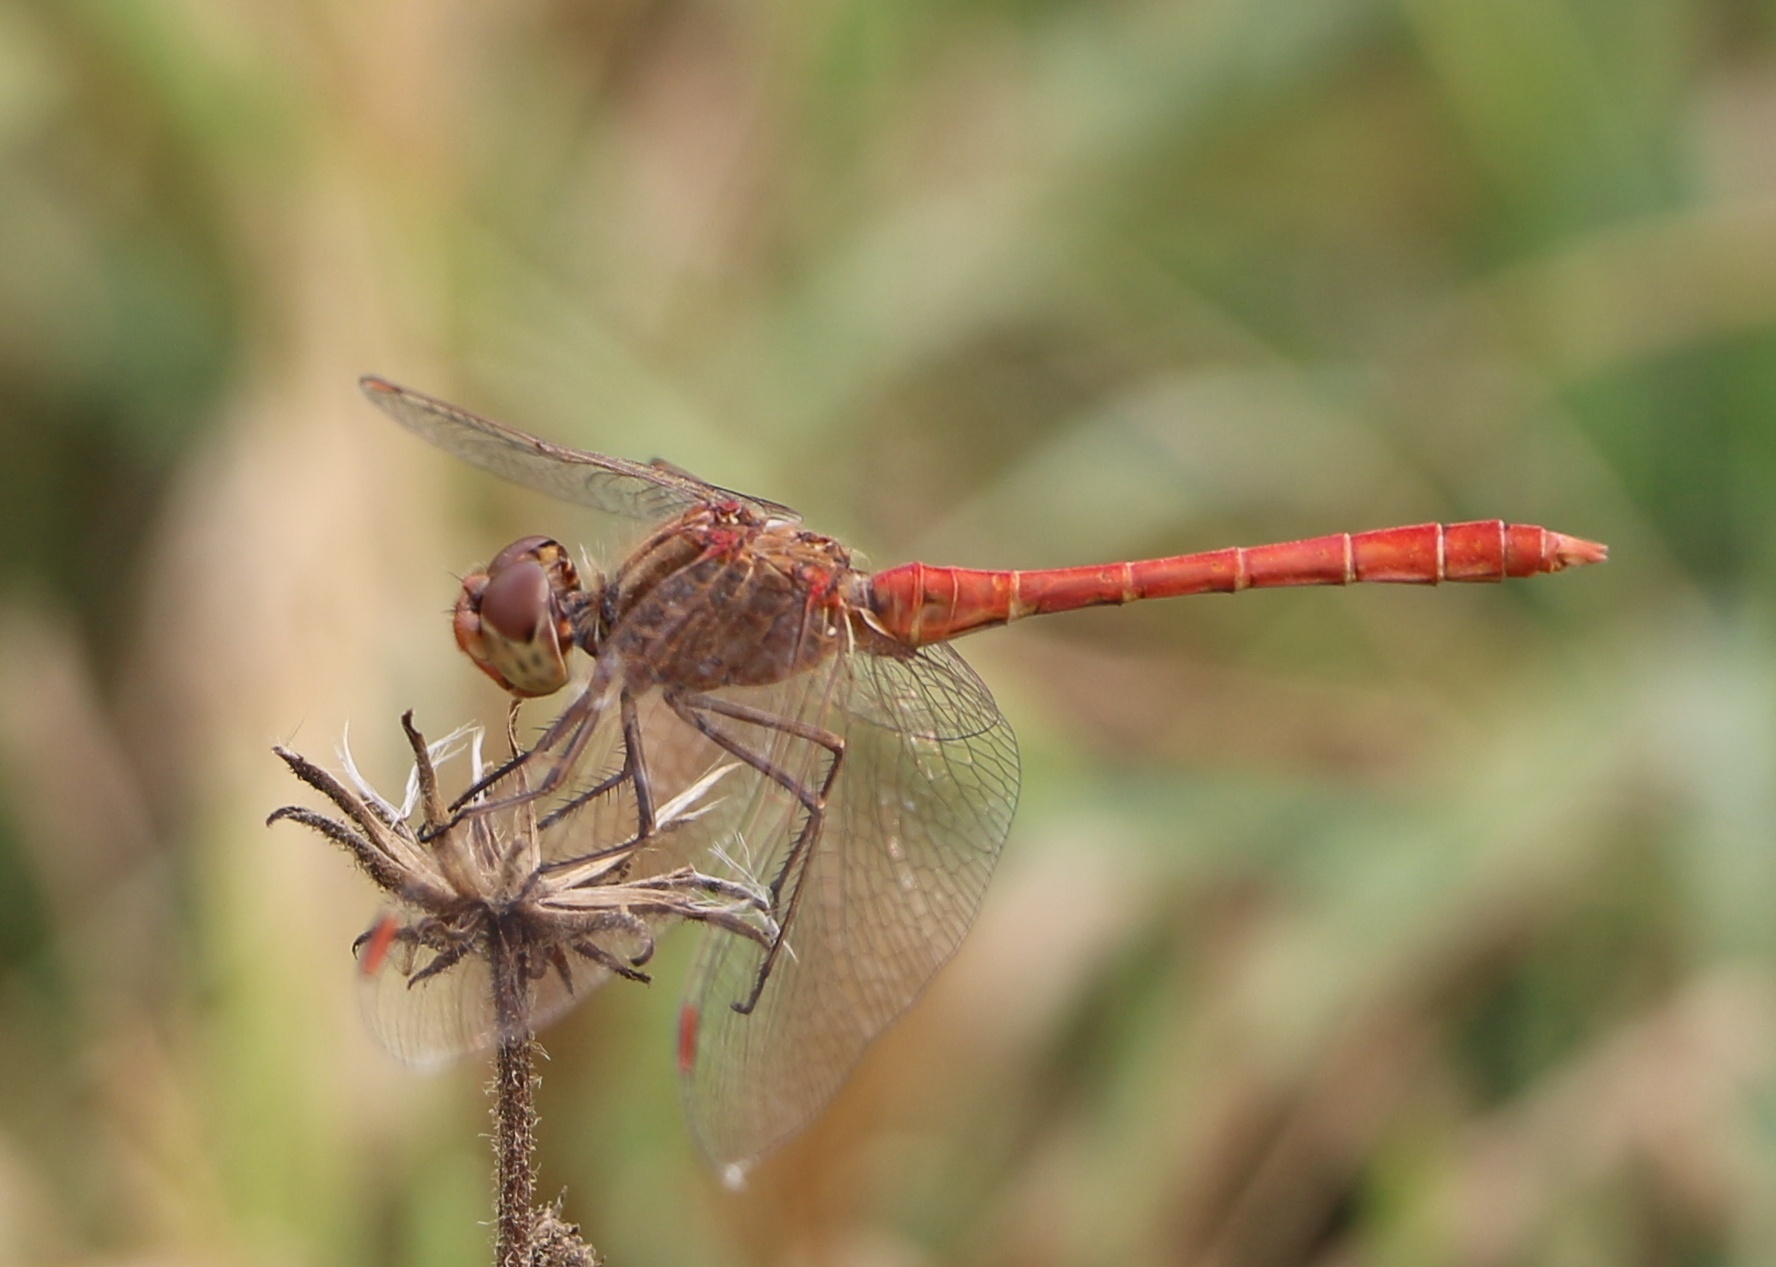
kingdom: Animalia
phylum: Arthropoda
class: Insecta
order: Odonata
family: Libellulidae
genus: Sympetrum
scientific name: Sympetrum meridionale
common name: Southern darter
